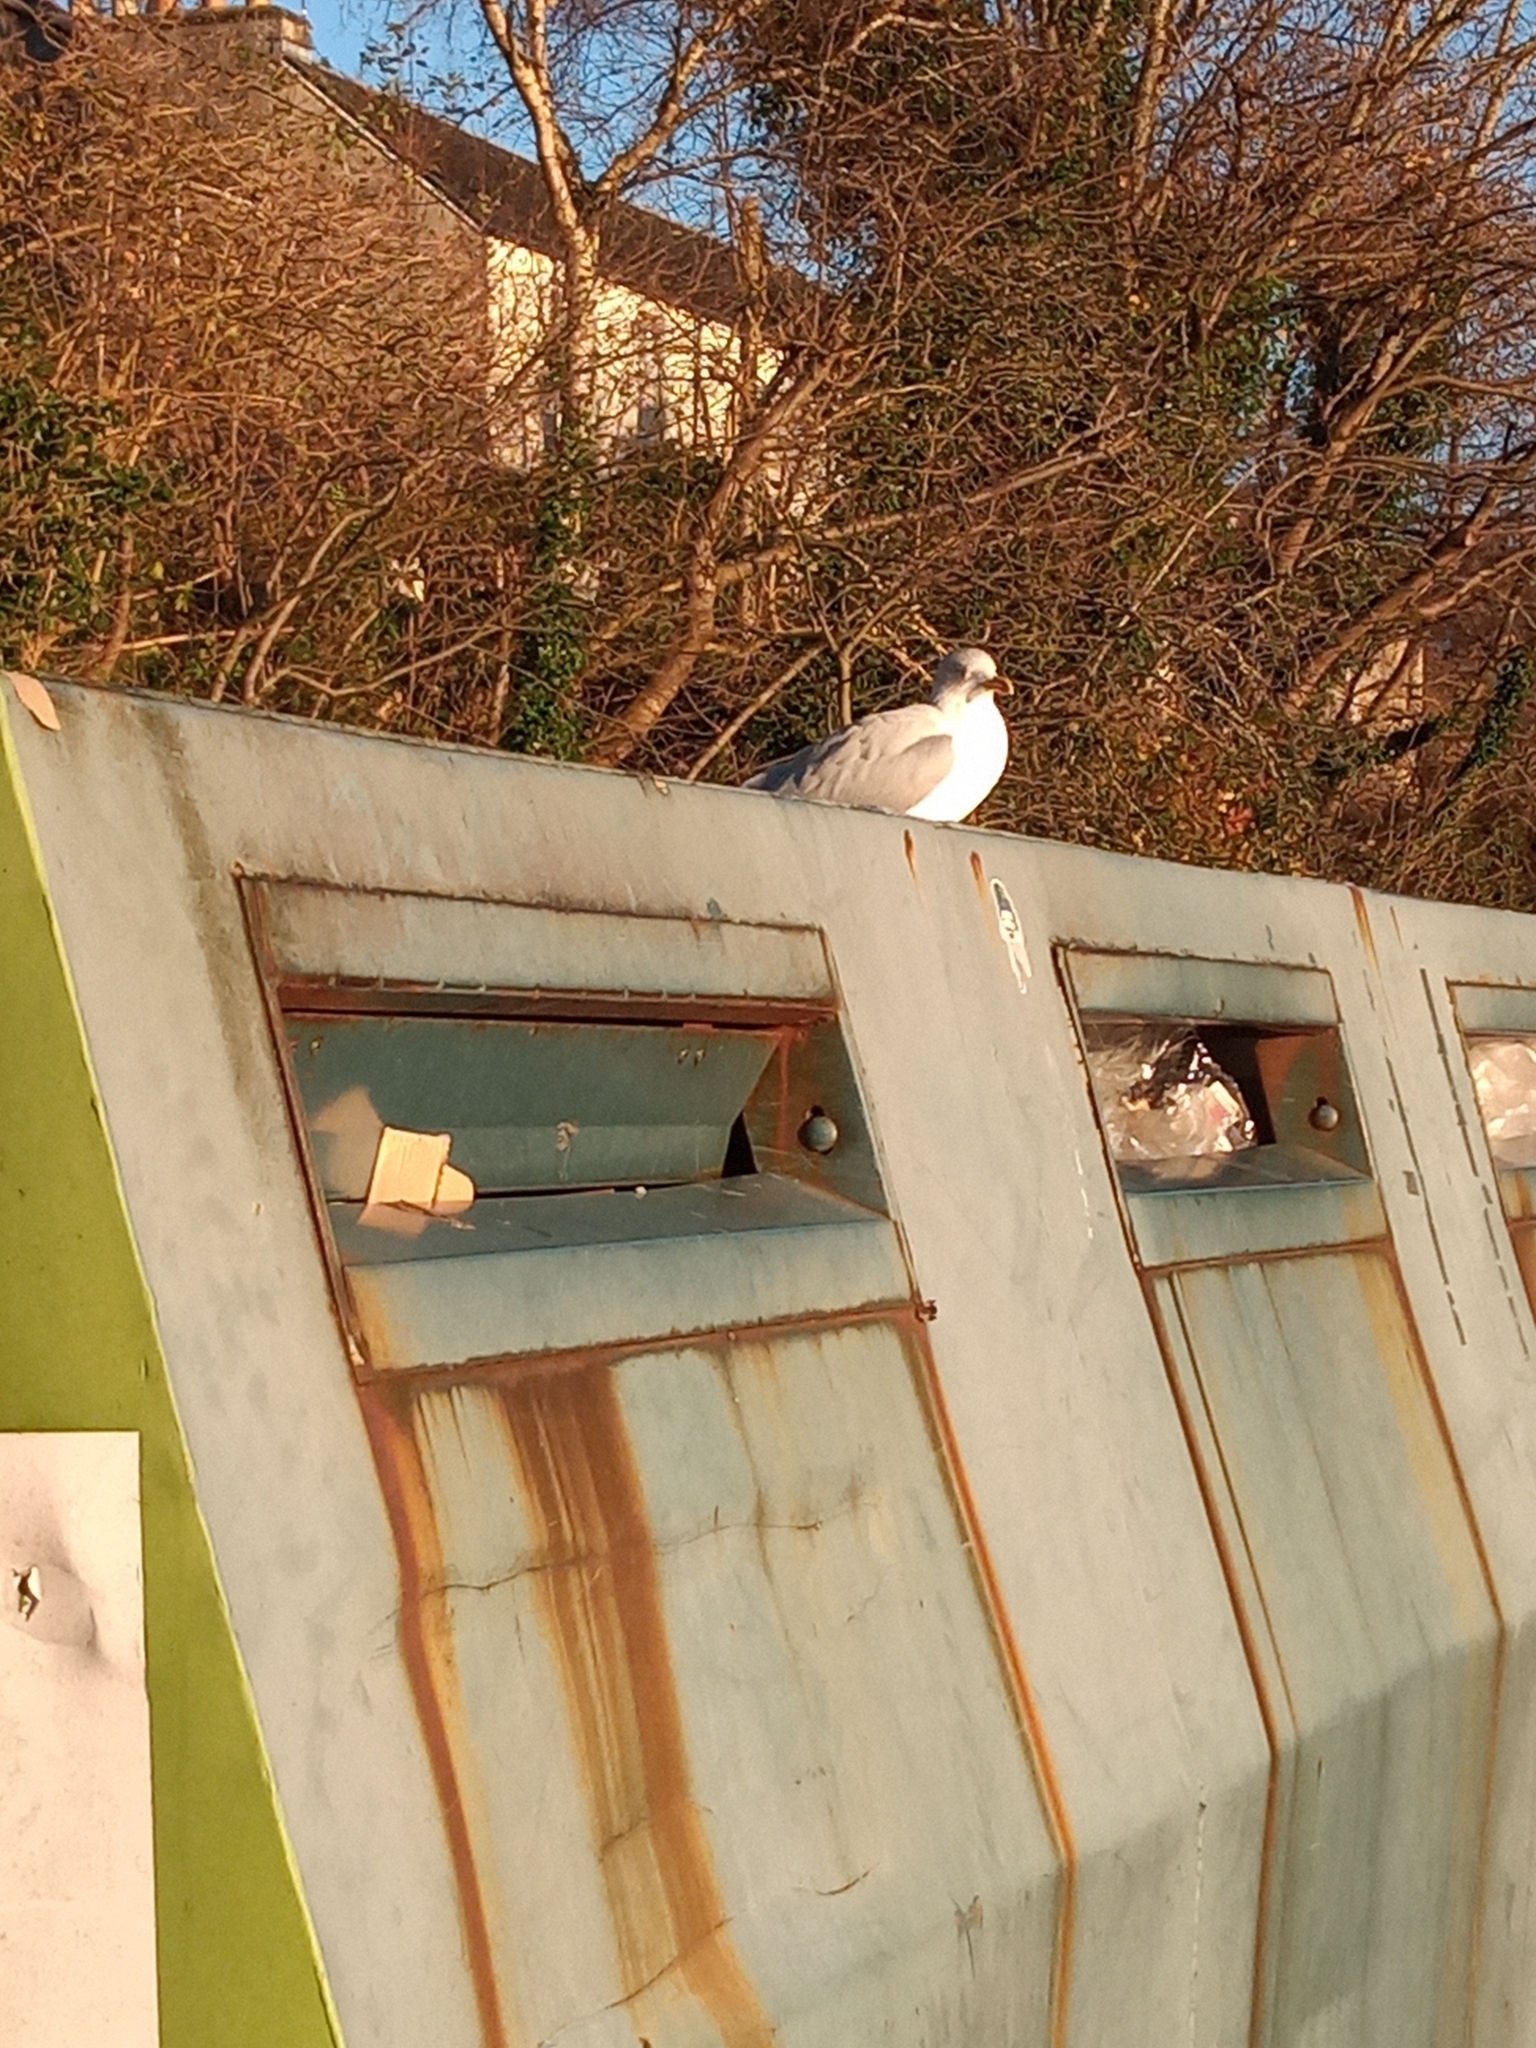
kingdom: Animalia
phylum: Chordata
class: Aves
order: Charadriiformes
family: Laridae
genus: Larus
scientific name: Larus argentatus
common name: Herring gull
